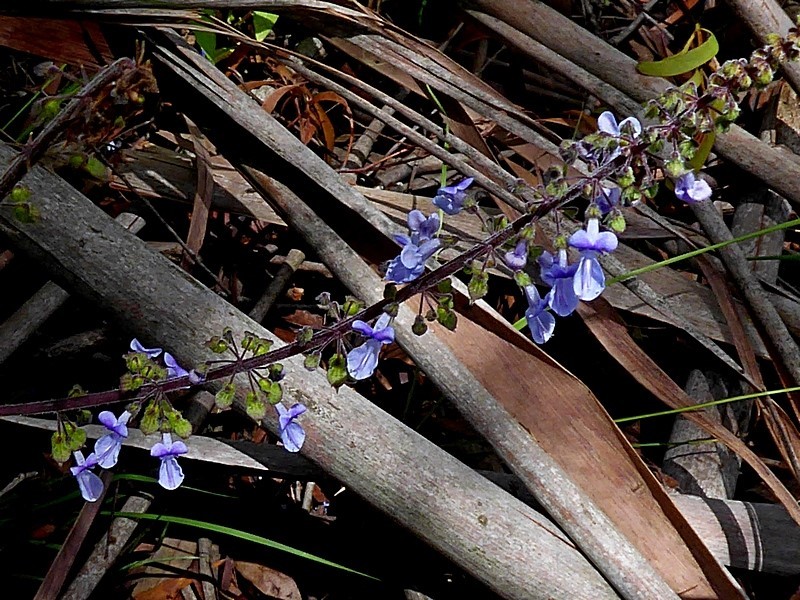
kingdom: Plantae
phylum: Tracheophyta
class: Magnoliopsida
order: Lamiales
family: Lamiaceae
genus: Coleus
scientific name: Coleus australis
